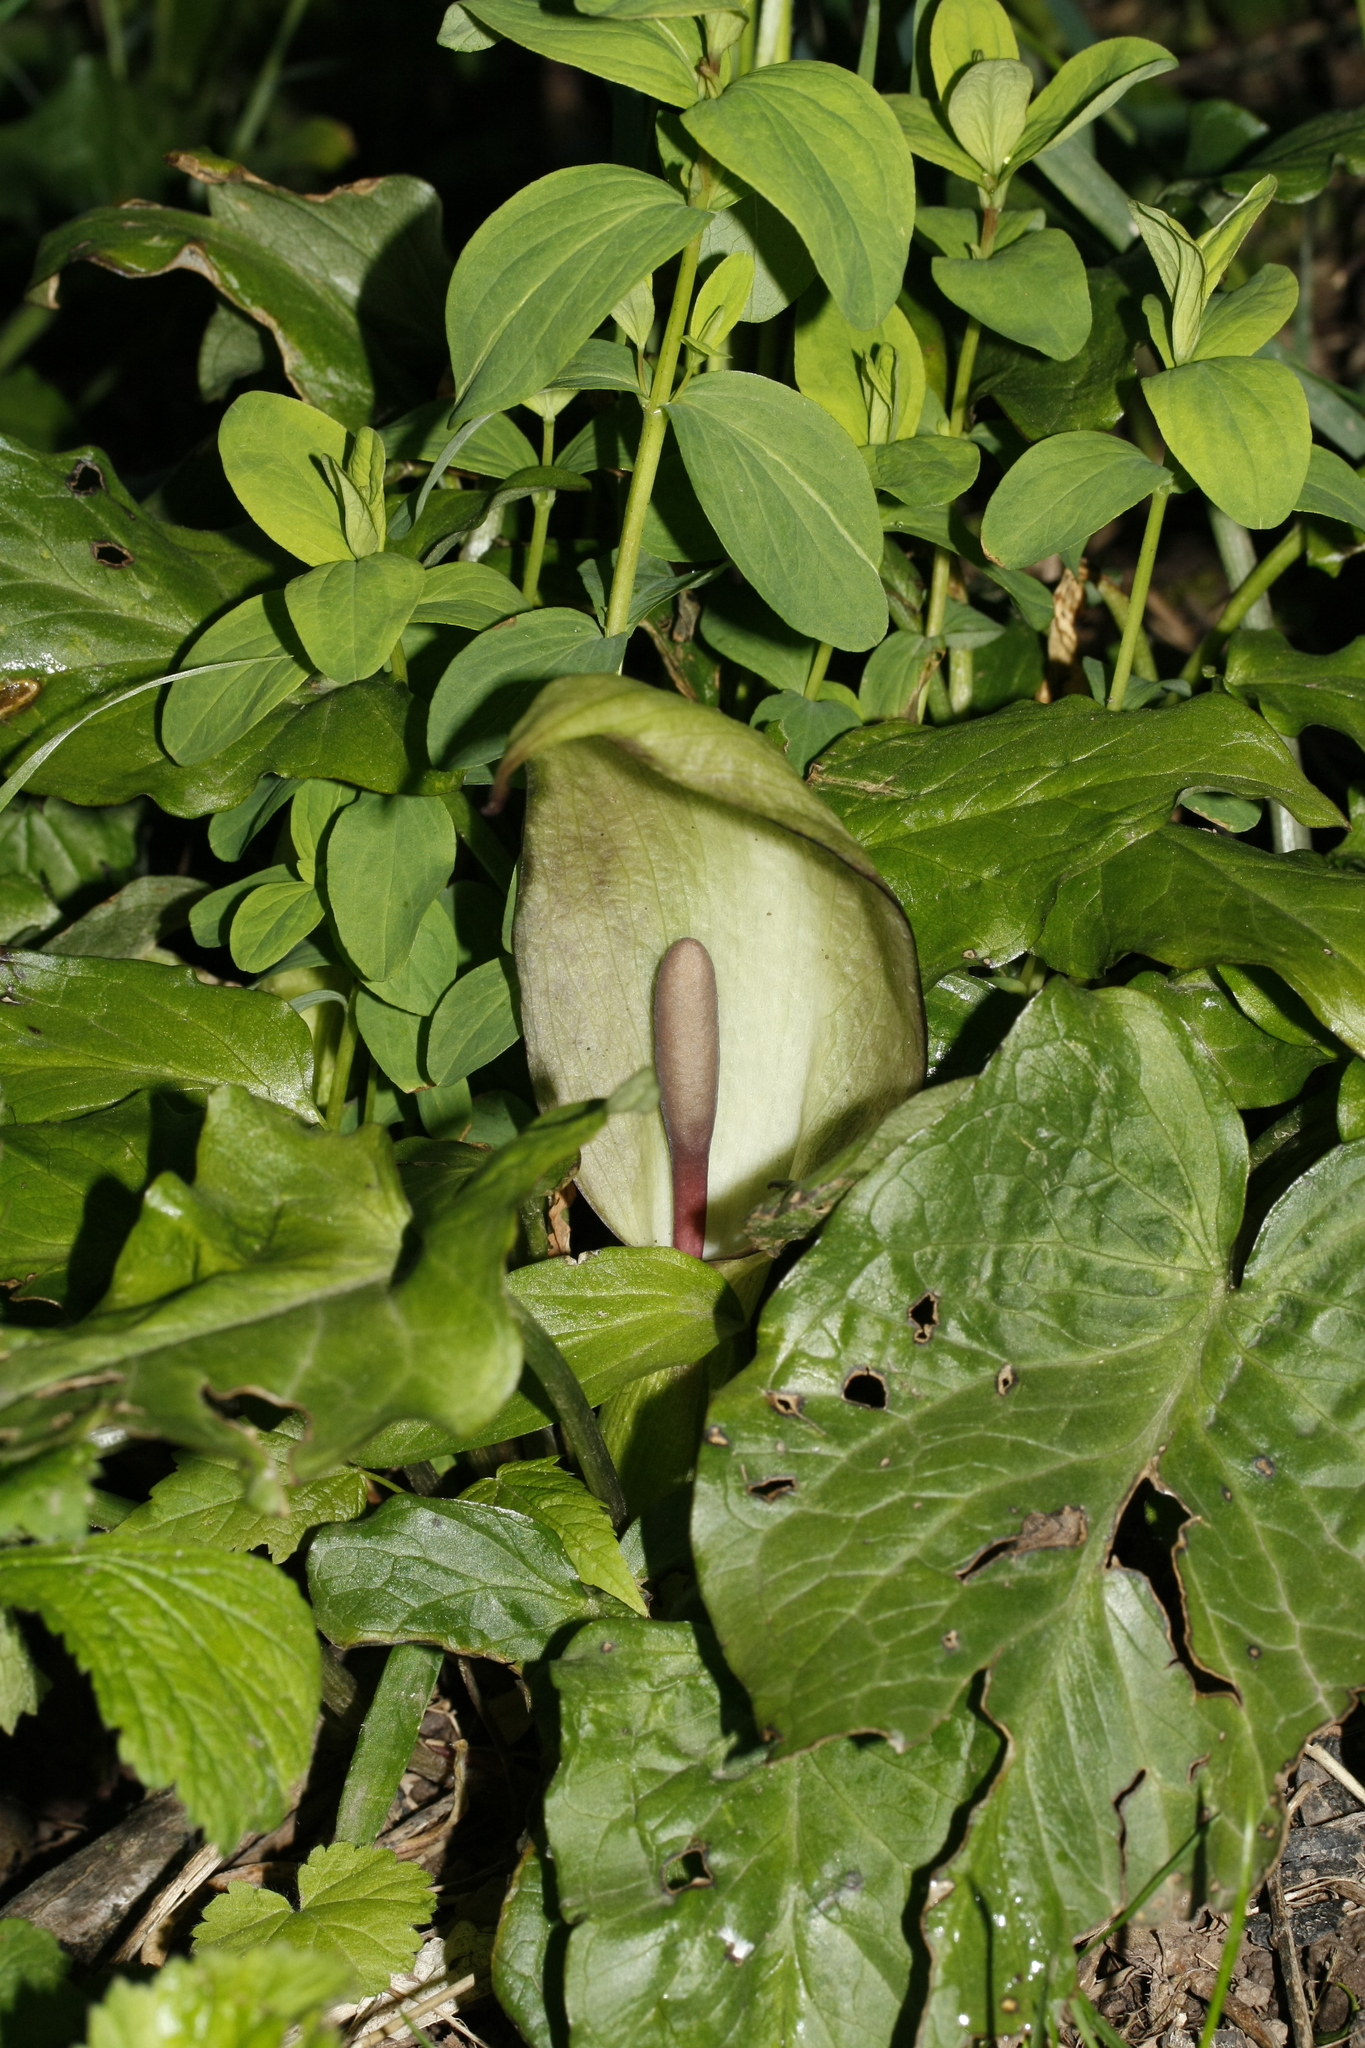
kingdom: Plantae
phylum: Tracheophyta
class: Liliopsida
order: Alismatales
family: Araceae
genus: Arum
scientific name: Arum maculatum
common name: Lords-and-ladies
